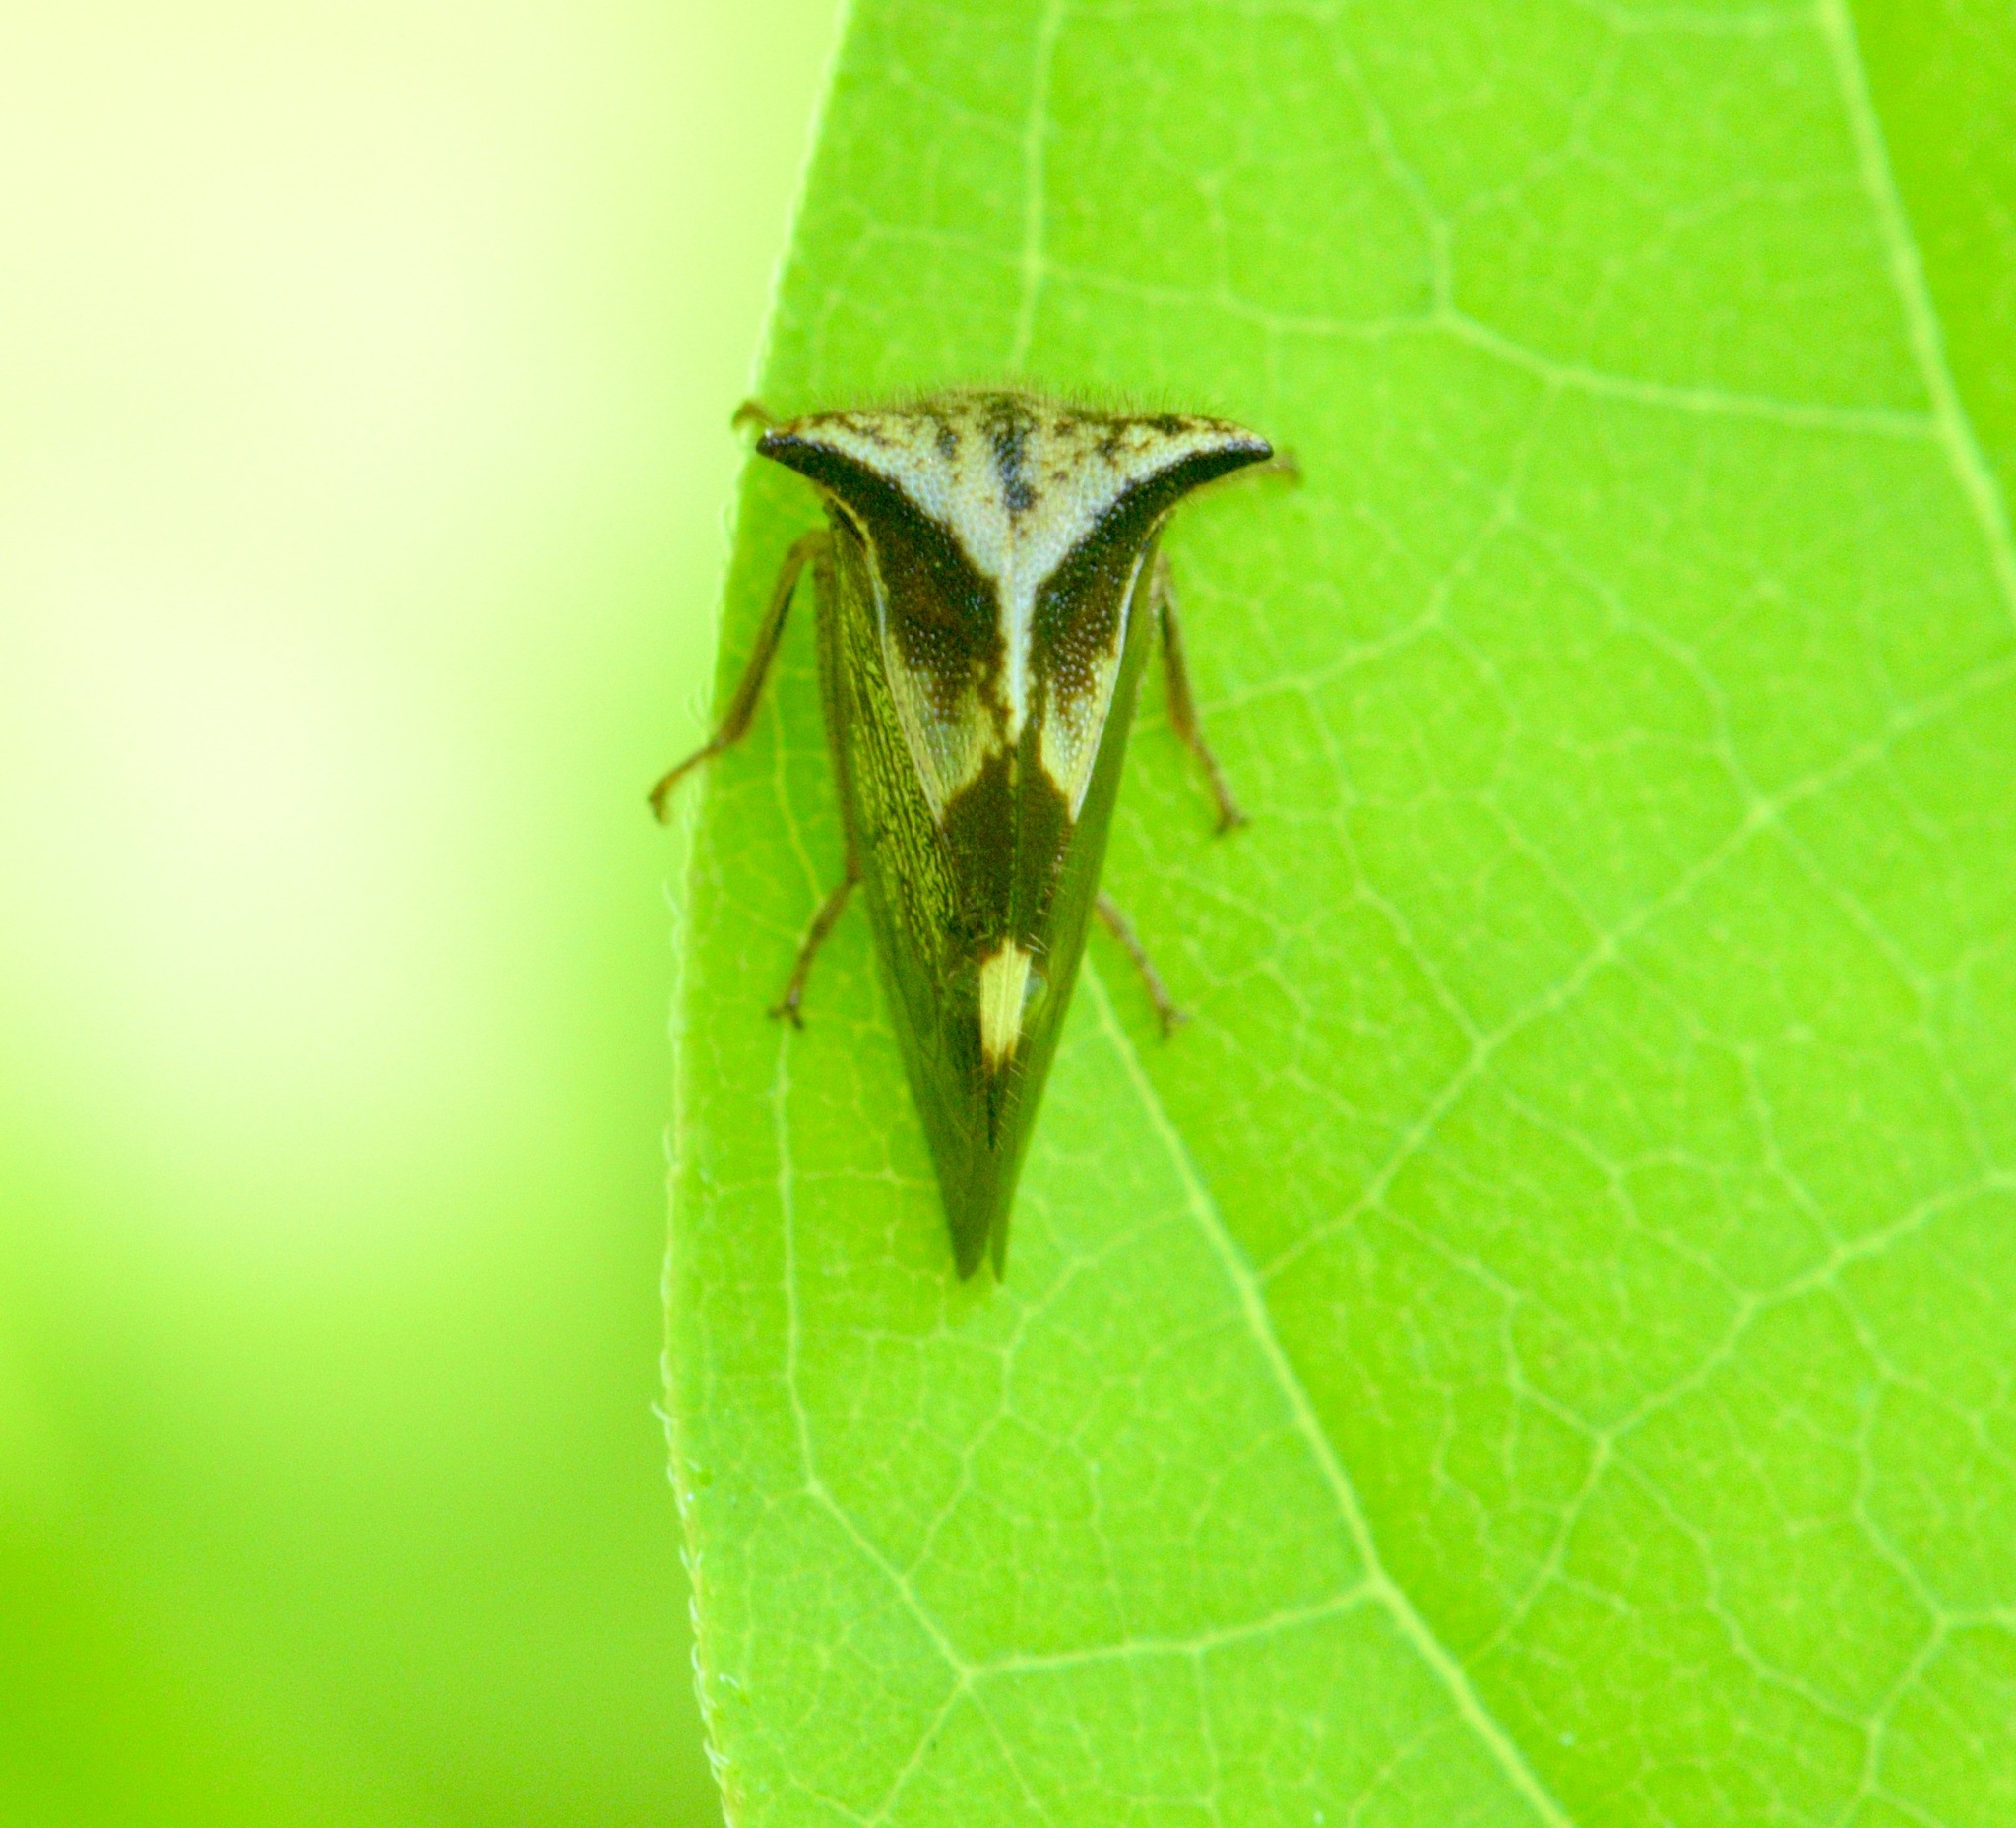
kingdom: Animalia
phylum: Arthropoda
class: Insecta
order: Hemiptera
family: Membracidae
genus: Stictocephala
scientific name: Stictocephala diceros
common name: Two-horned treehopper
